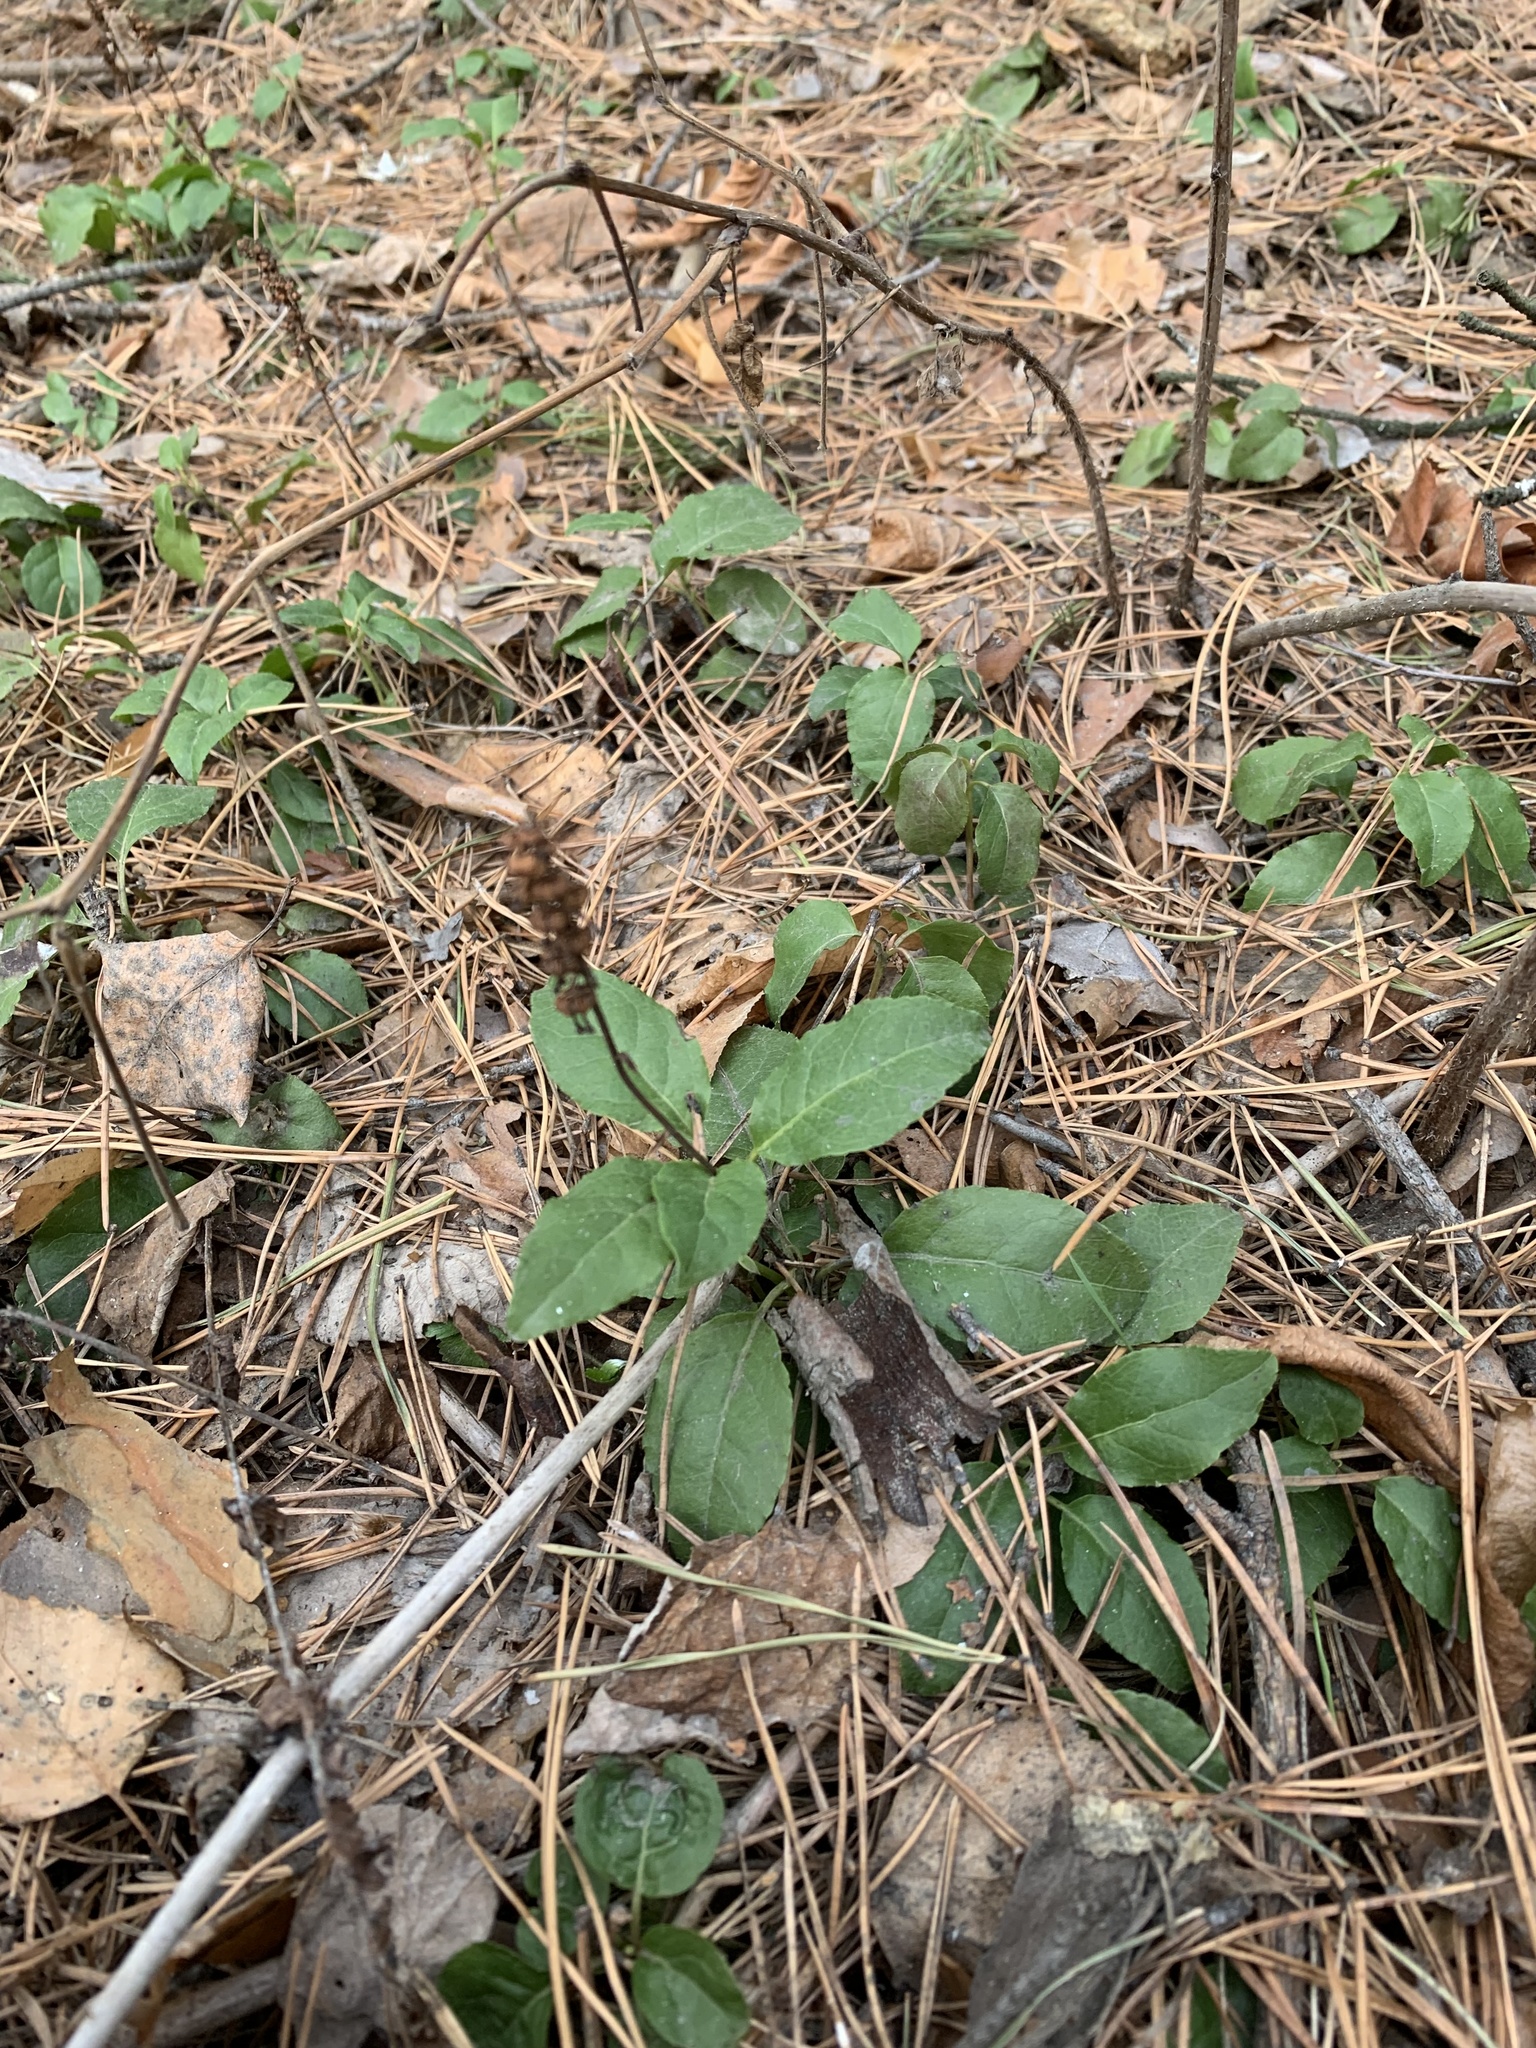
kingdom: Plantae
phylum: Tracheophyta
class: Magnoliopsida
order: Ericales
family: Ericaceae
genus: Orthilia
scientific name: Orthilia secunda
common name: One-sided orthilia
